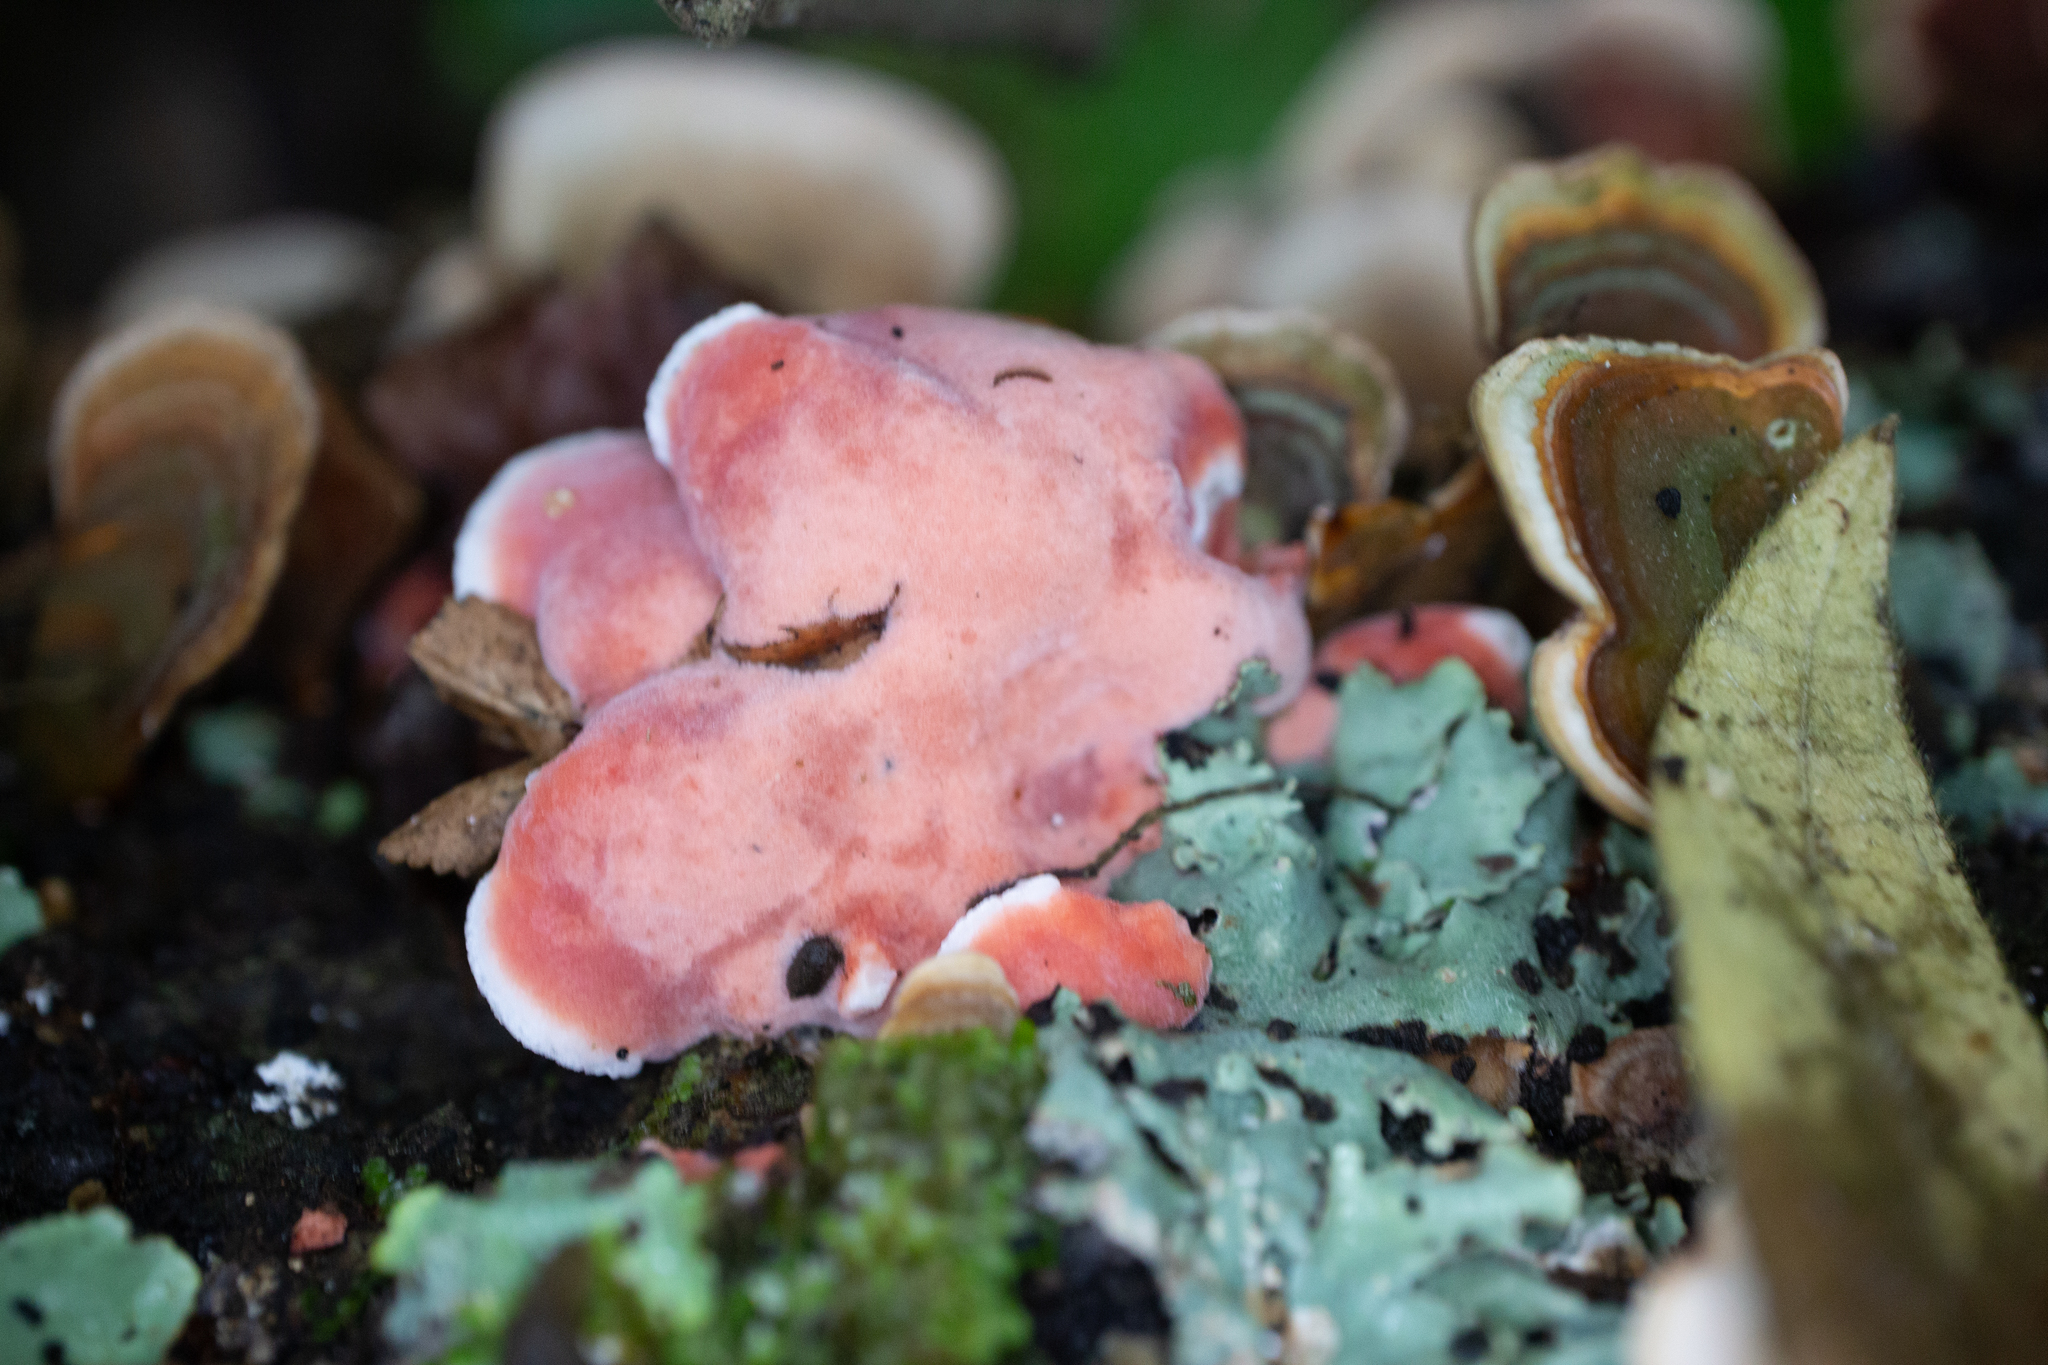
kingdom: Fungi
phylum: Basidiomycota
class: Agaricomycetes
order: Polyporales
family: Irpicaceae
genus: Byssomerulius
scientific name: Byssomerulius incarnatus
